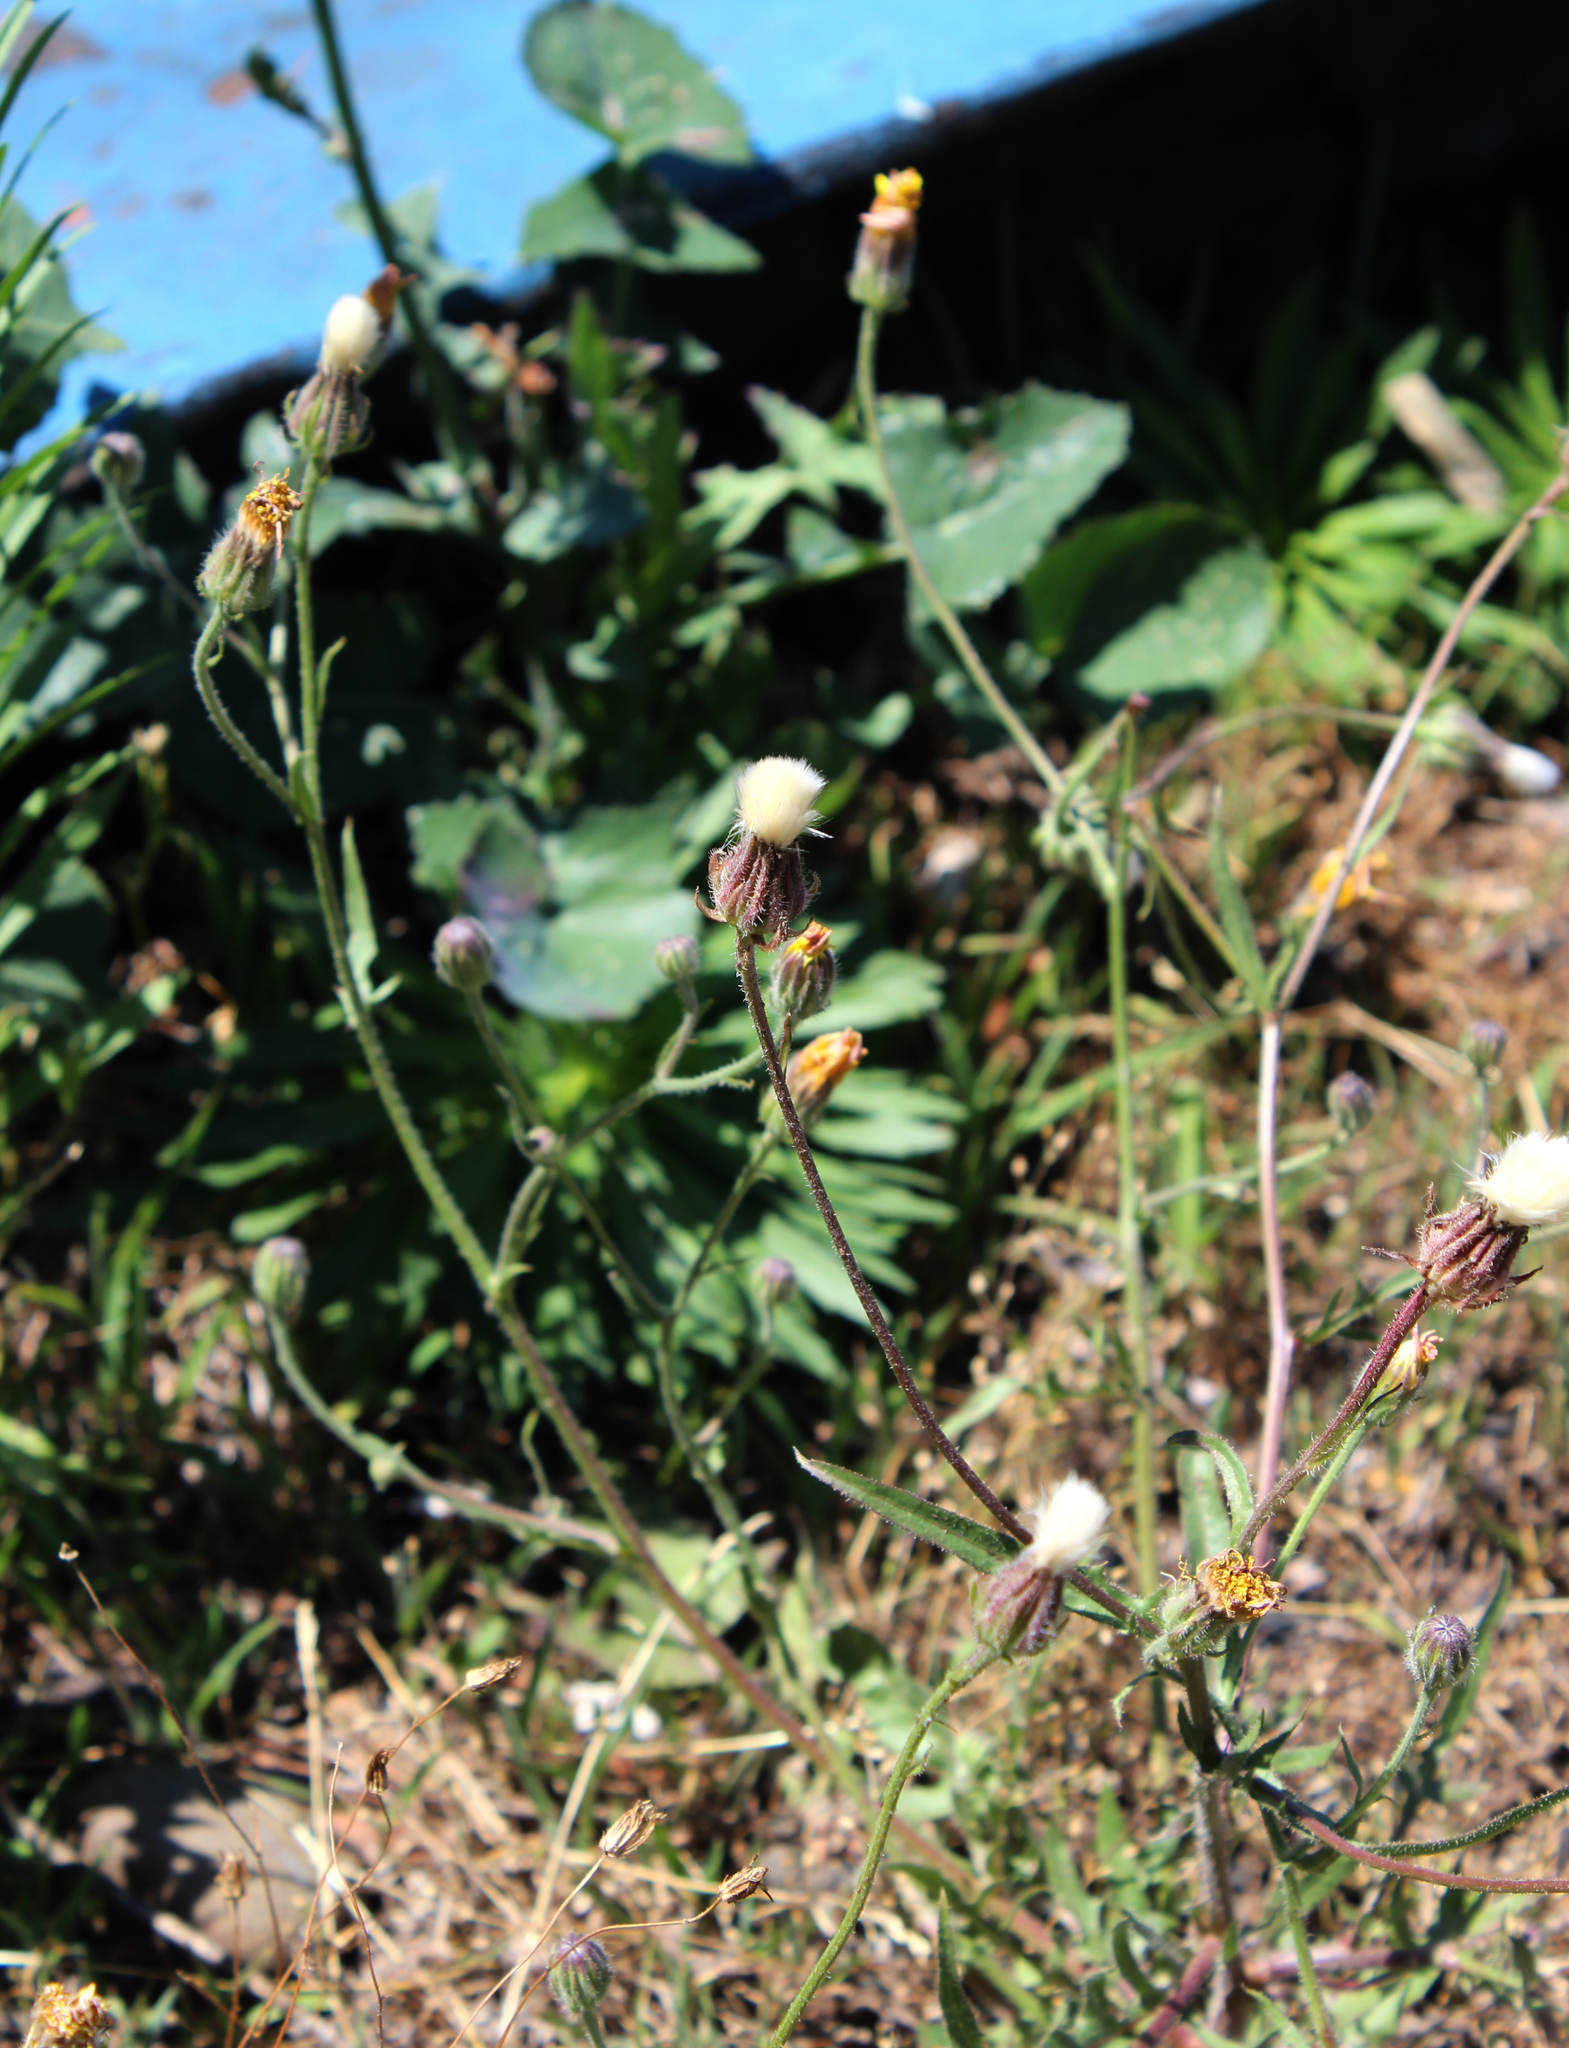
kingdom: Plantae
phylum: Tracheophyta
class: Magnoliopsida
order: Asterales
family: Asteraceae
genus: Crepis
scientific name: Crepis foetida
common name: Stinking hawk's-beard
